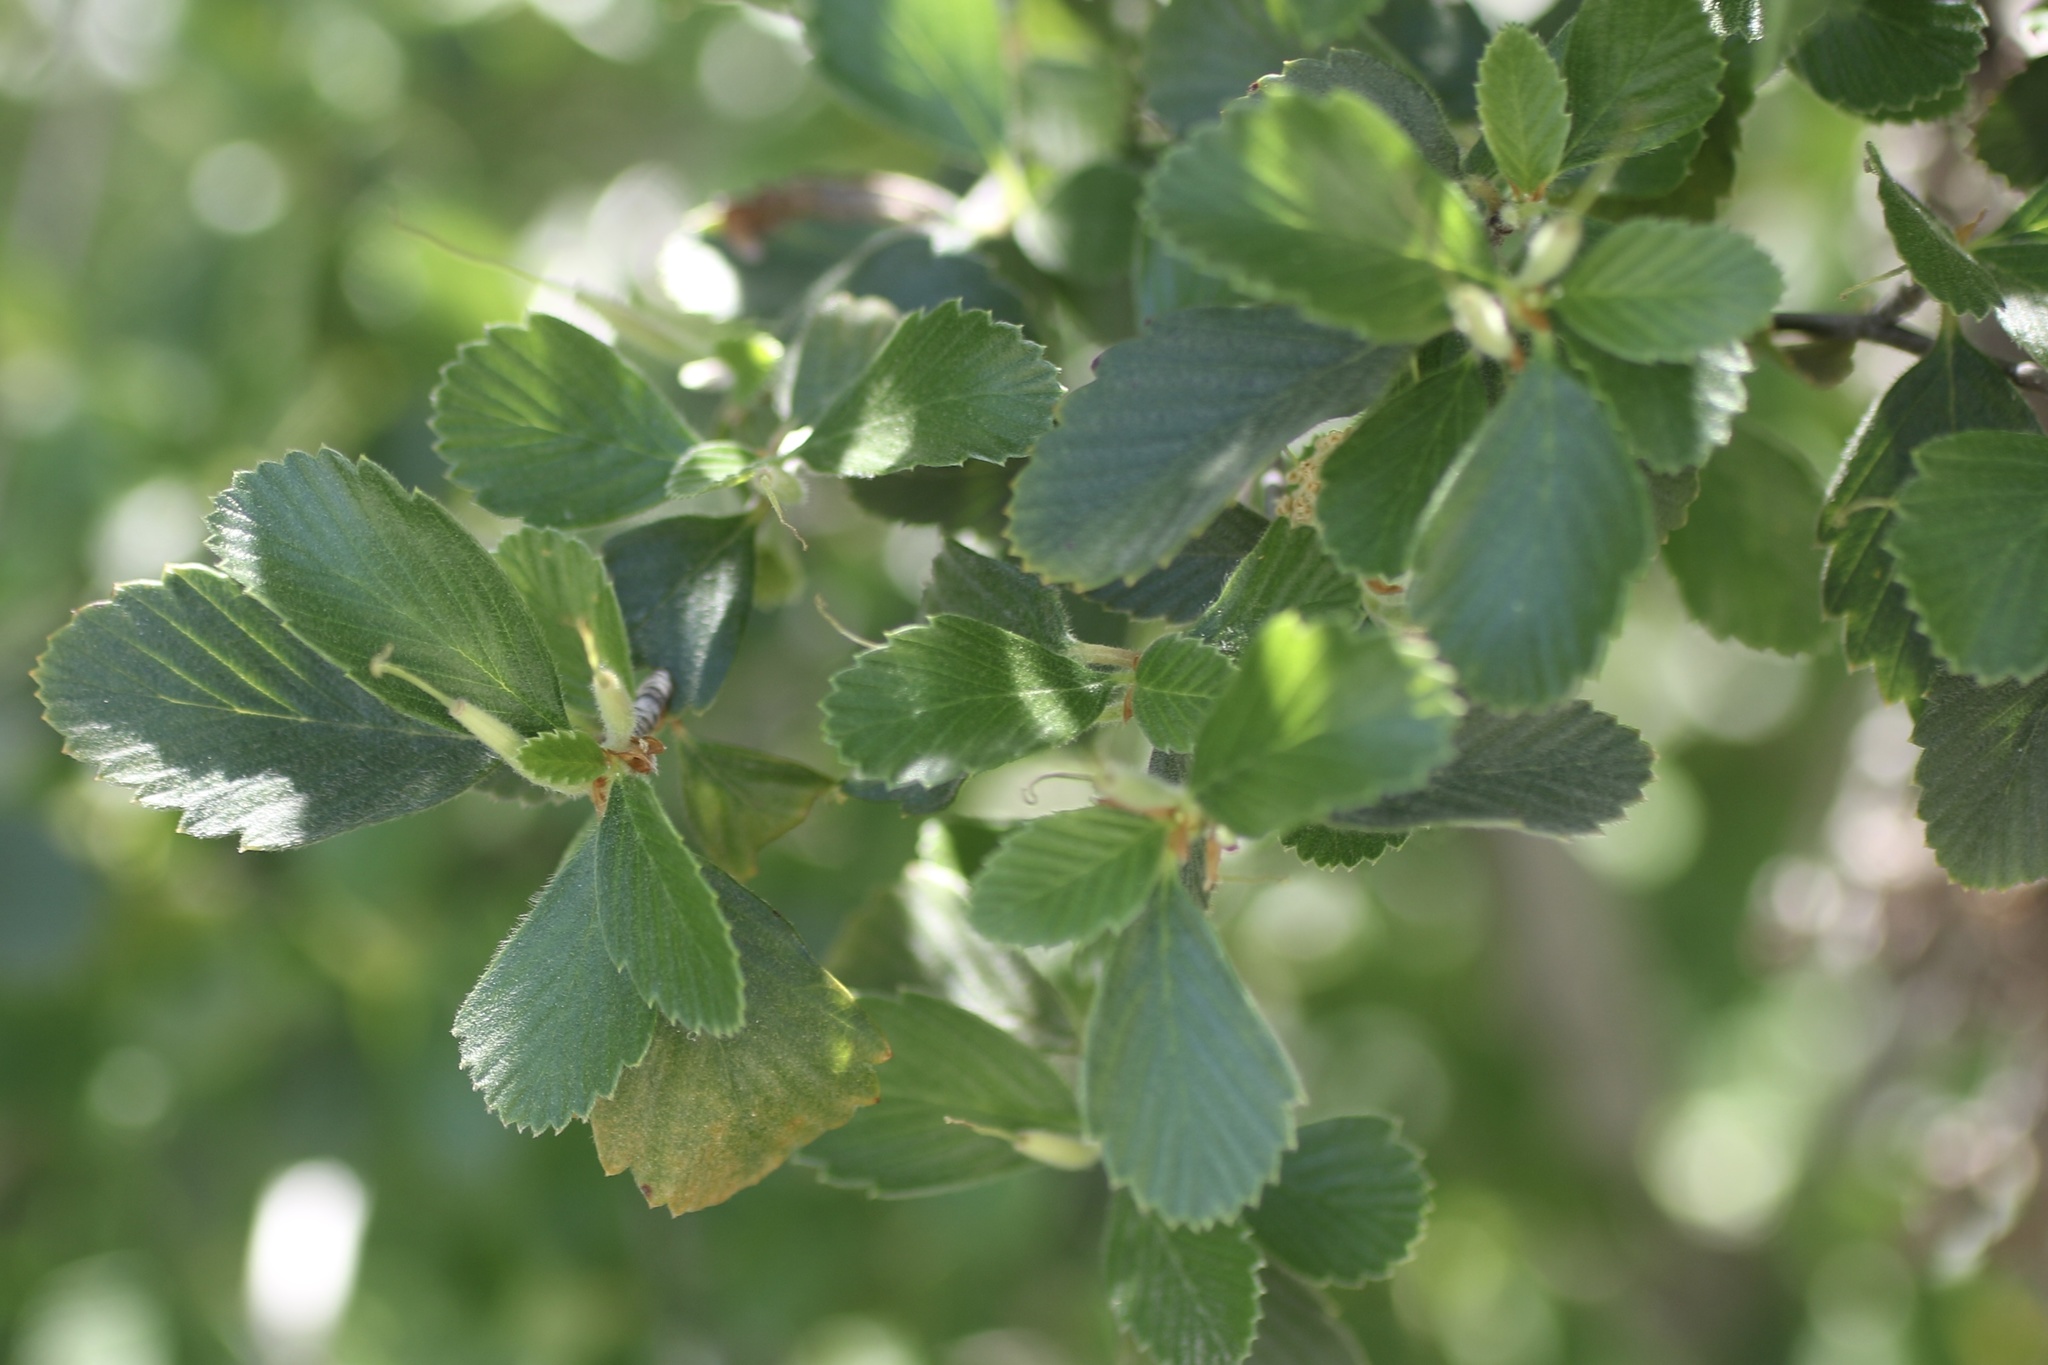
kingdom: Plantae
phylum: Tracheophyta
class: Magnoliopsida
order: Rosales
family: Rosaceae
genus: Cercocarpus
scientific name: Cercocarpus betuloides
